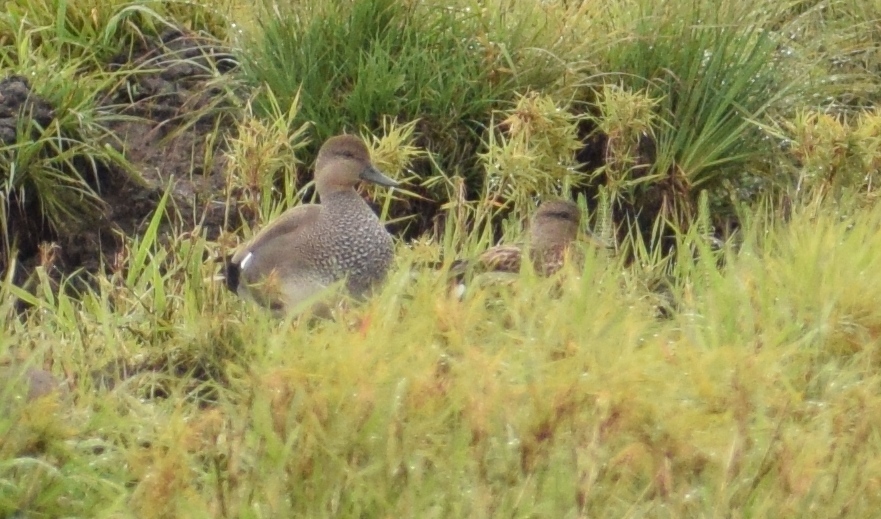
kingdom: Animalia
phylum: Chordata
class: Aves
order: Anseriformes
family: Anatidae
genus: Mareca
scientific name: Mareca strepera
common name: Gadwall
